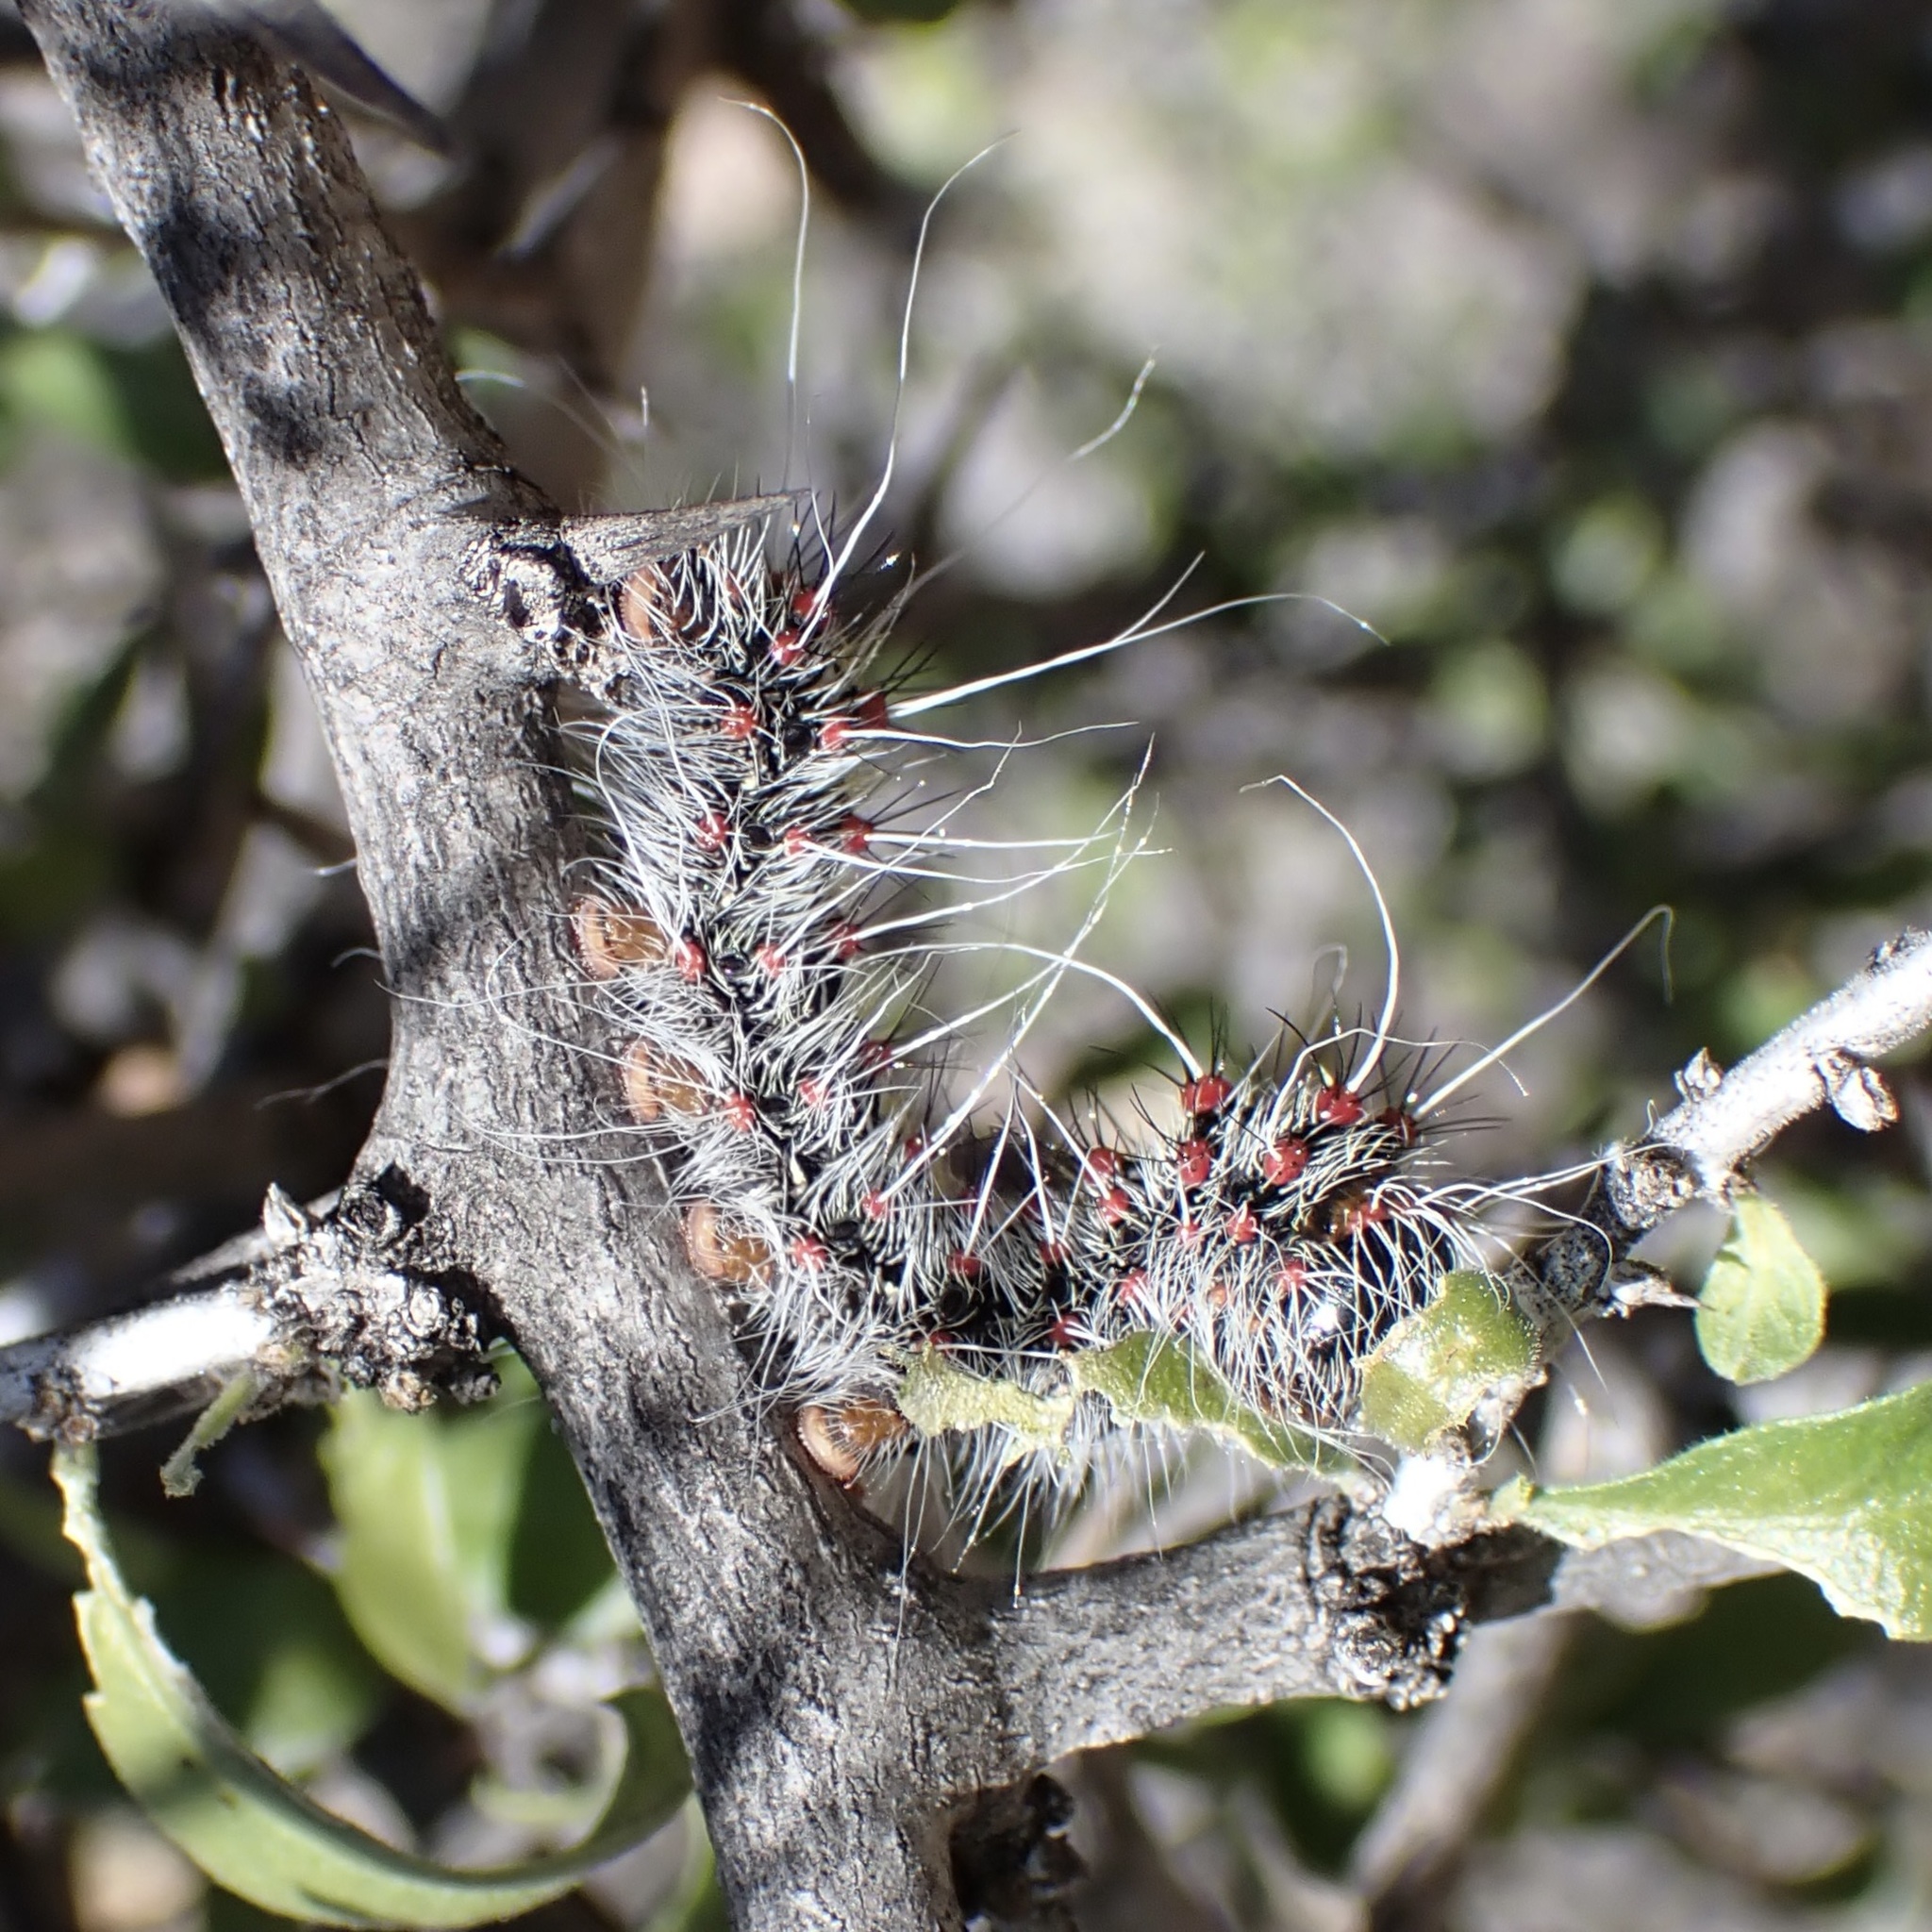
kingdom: Animalia
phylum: Arthropoda
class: Insecta
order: Lepidoptera
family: Saturniidae
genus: Saturnia
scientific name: Saturnia anona
